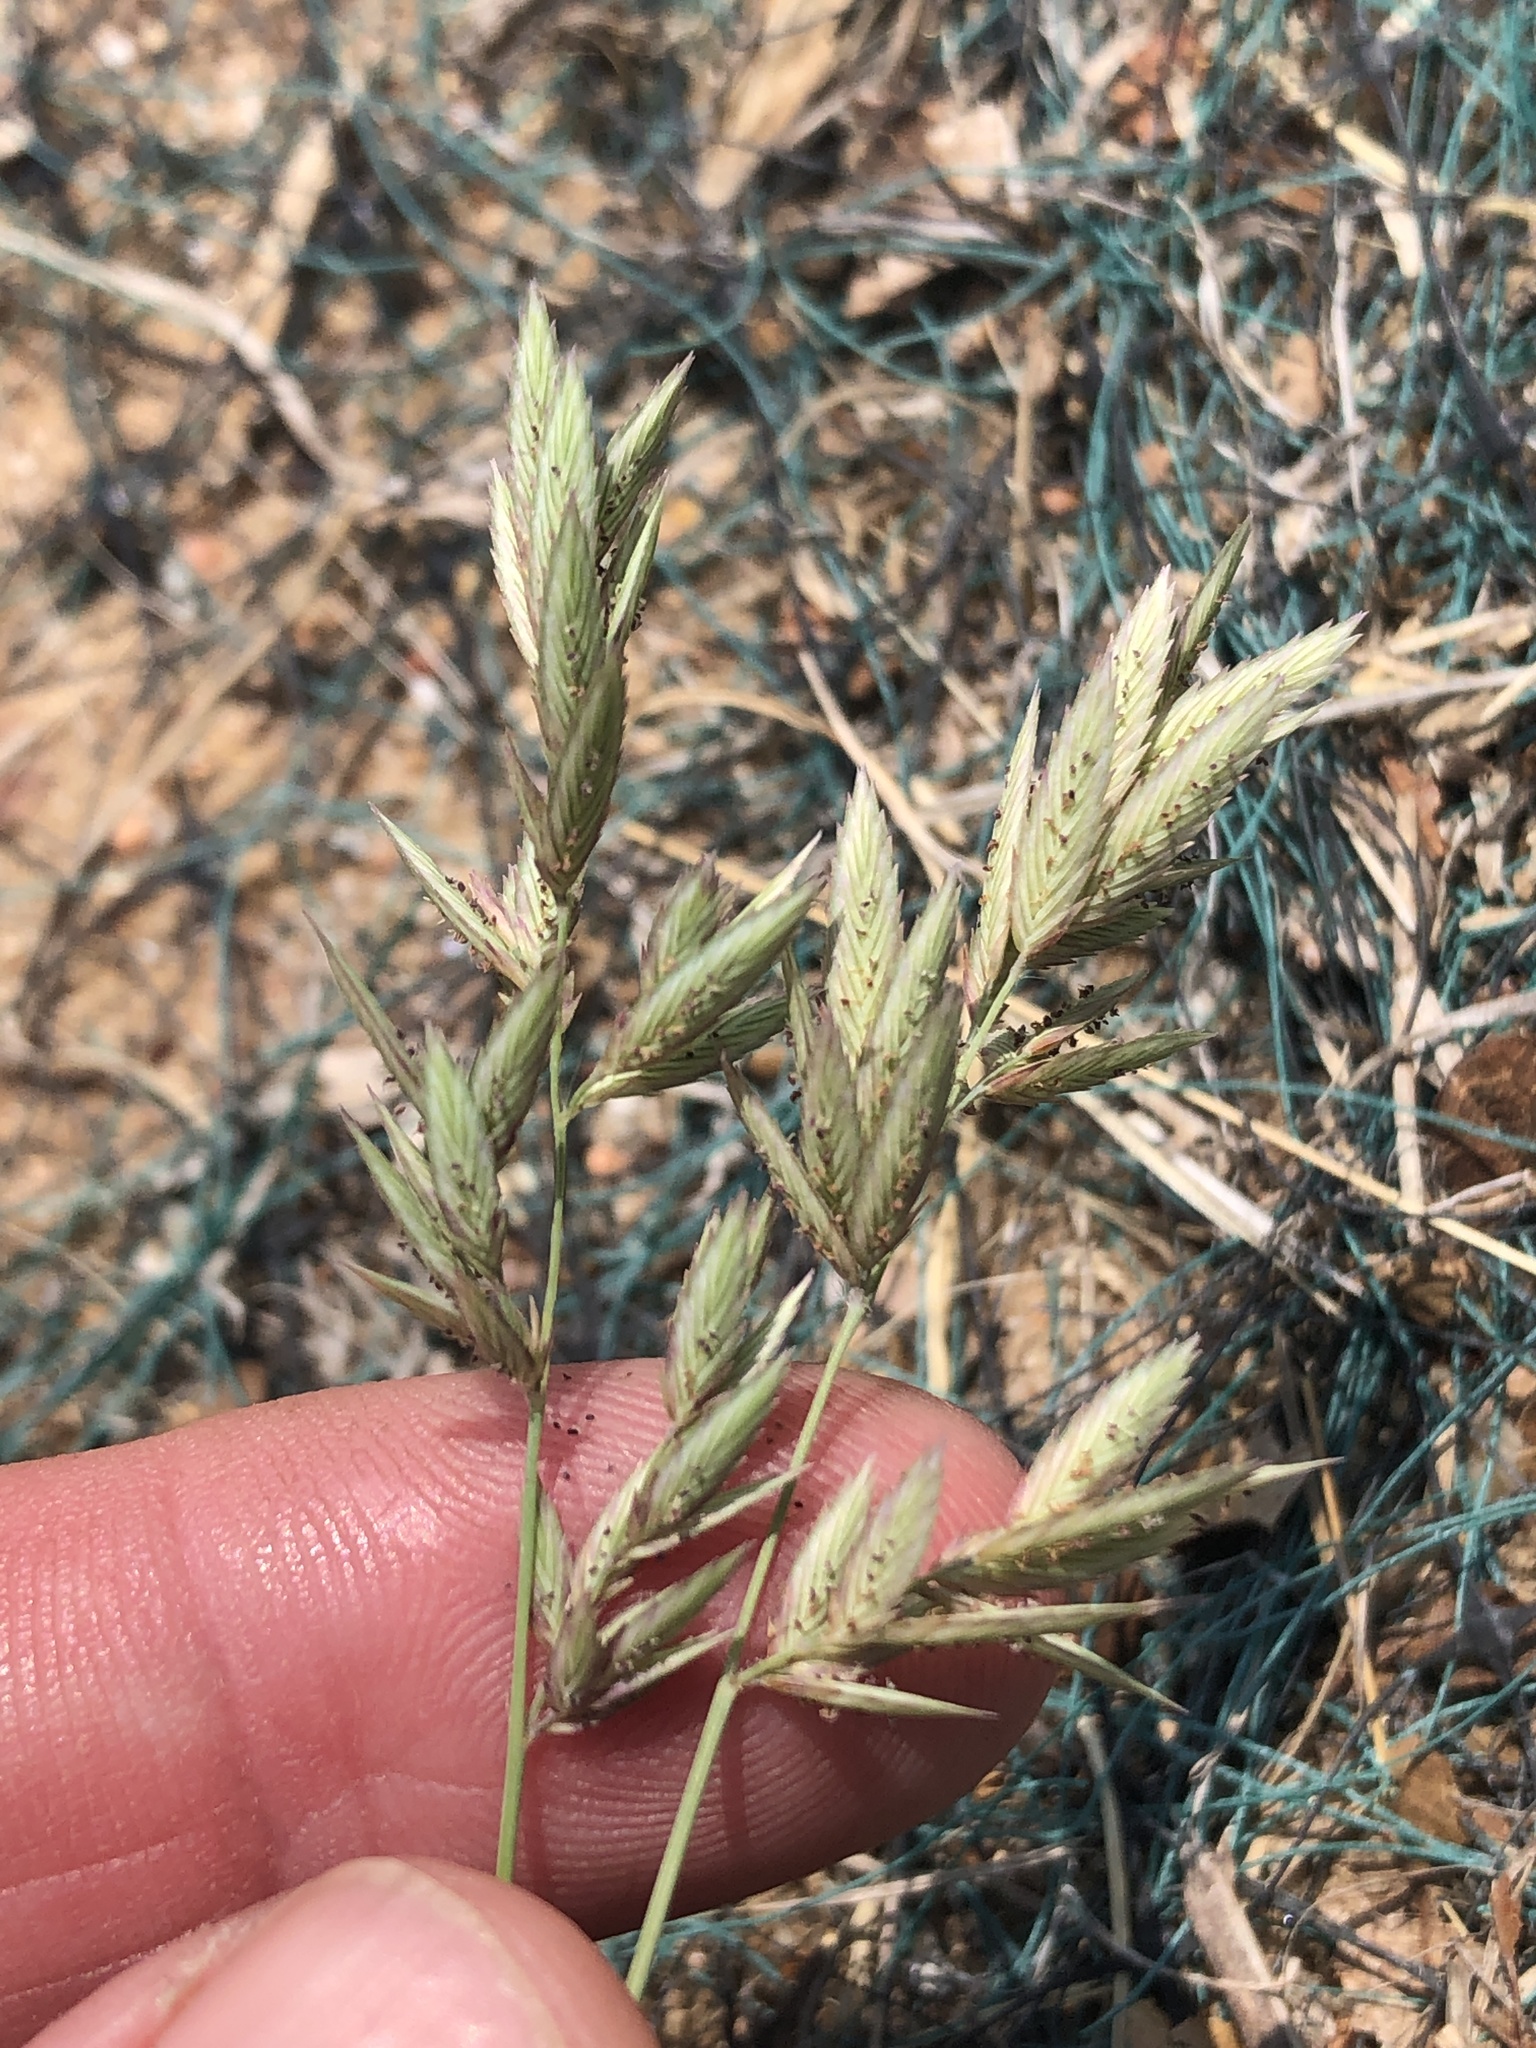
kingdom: Plantae
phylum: Tracheophyta
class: Liliopsida
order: Poales
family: Poaceae
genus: Eragrostis
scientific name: Eragrostis secundiflora
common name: Red love grass
